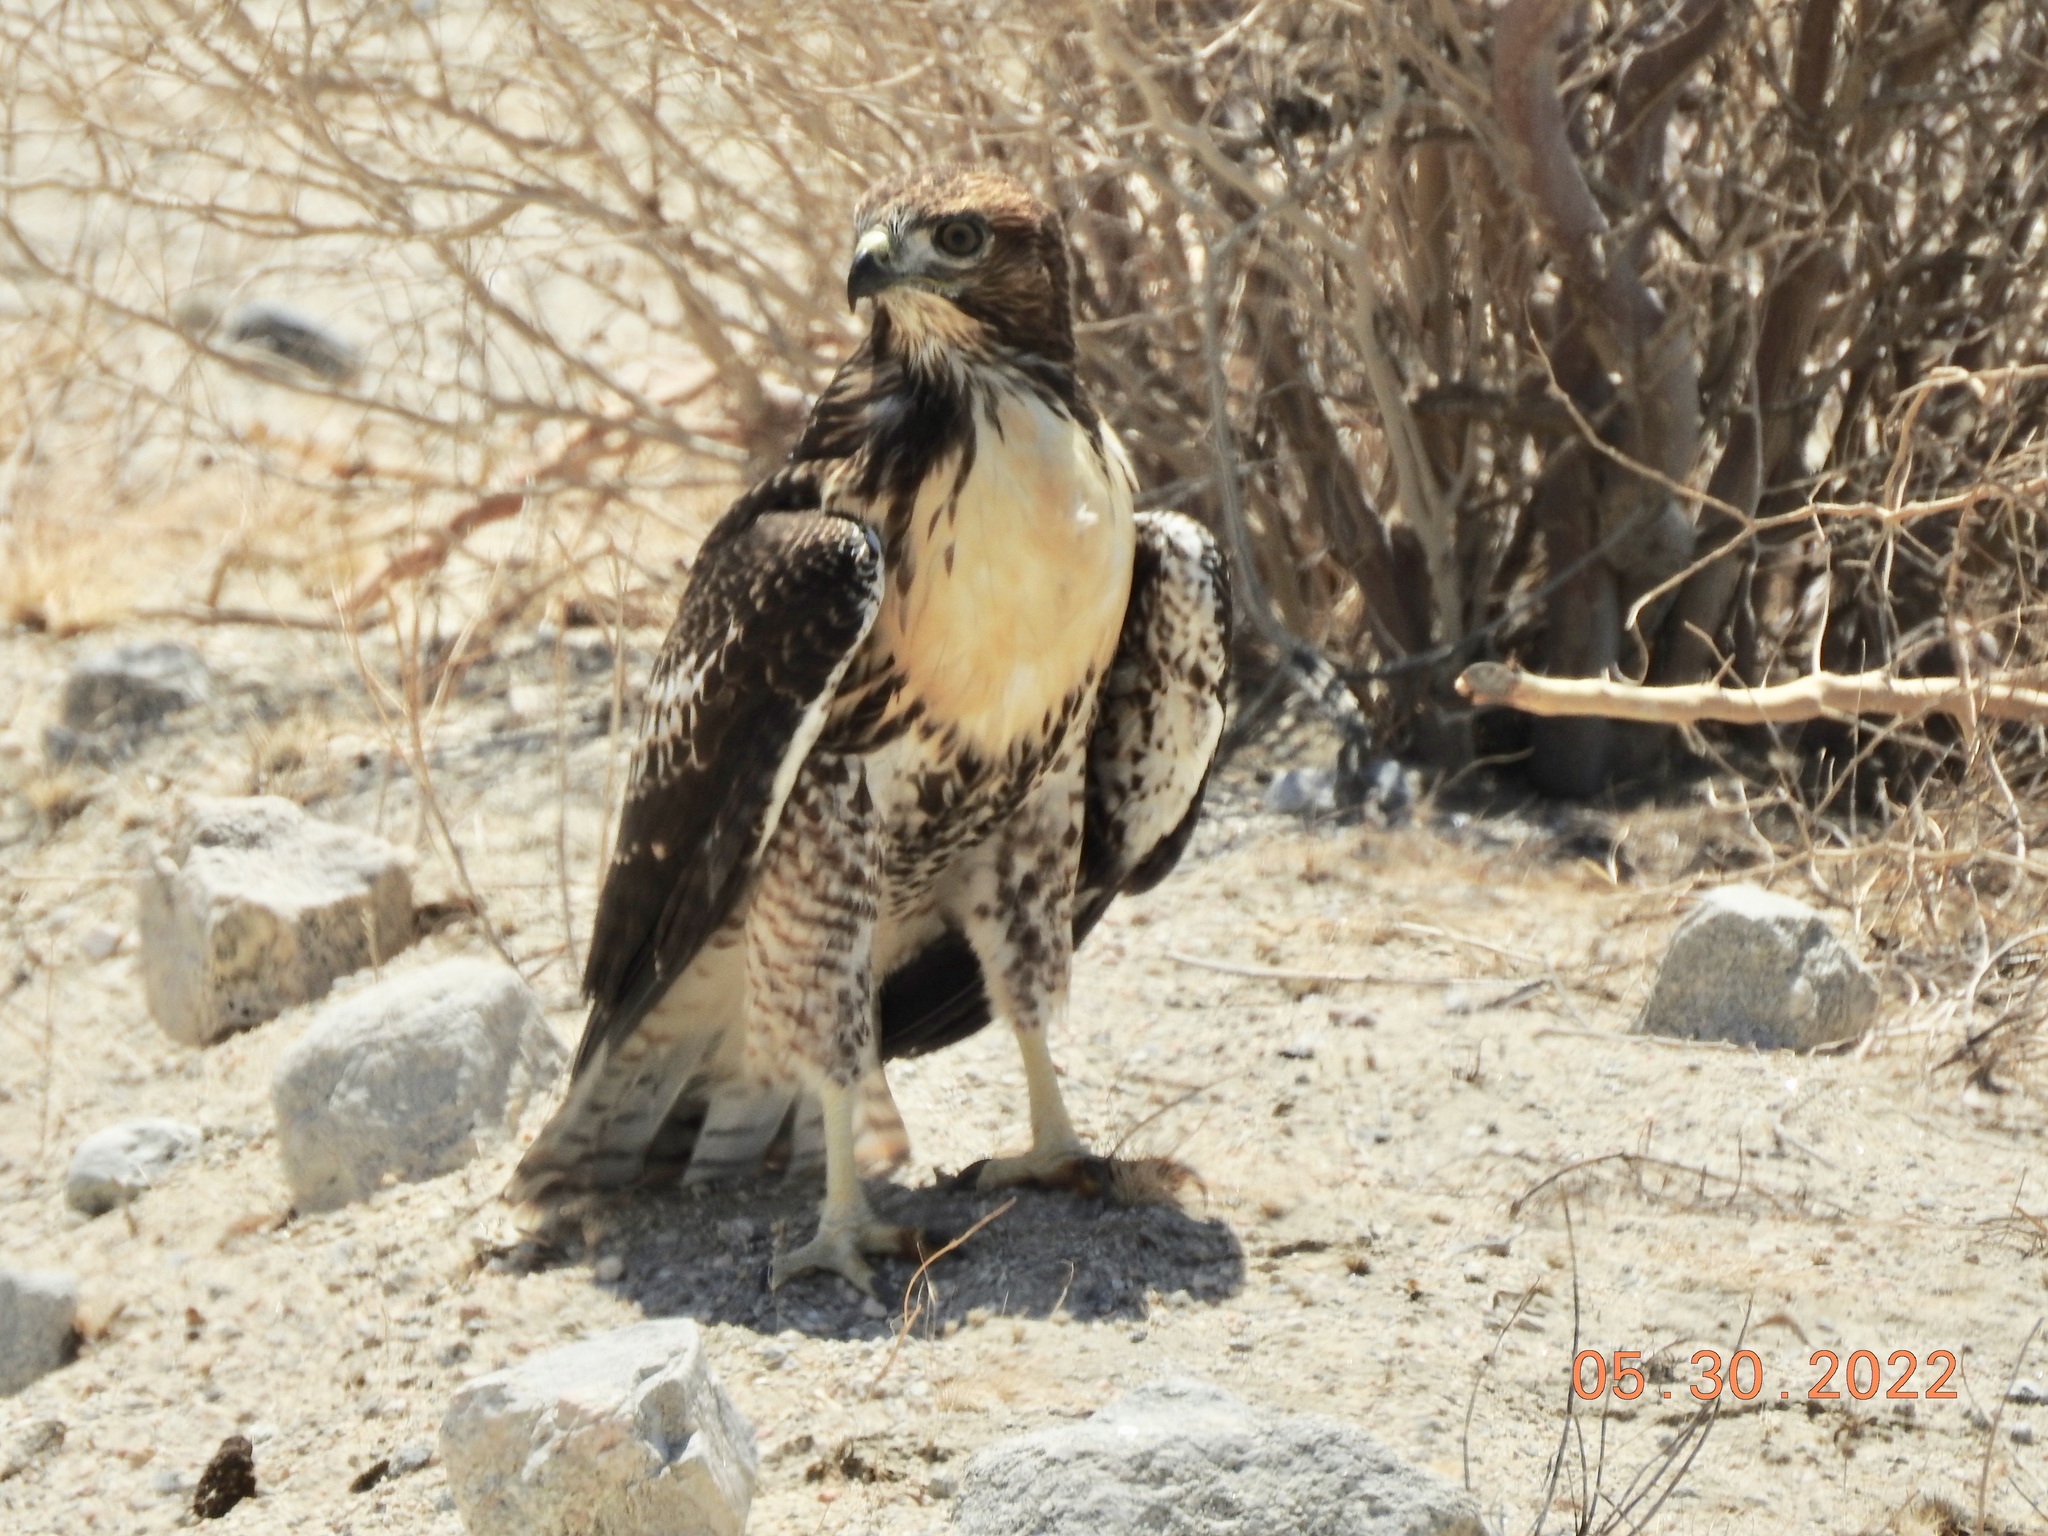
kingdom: Animalia
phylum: Chordata
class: Aves
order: Accipitriformes
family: Accipitridae
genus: Buteo
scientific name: Buteo jamaicensis
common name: Red-tailed hawk
